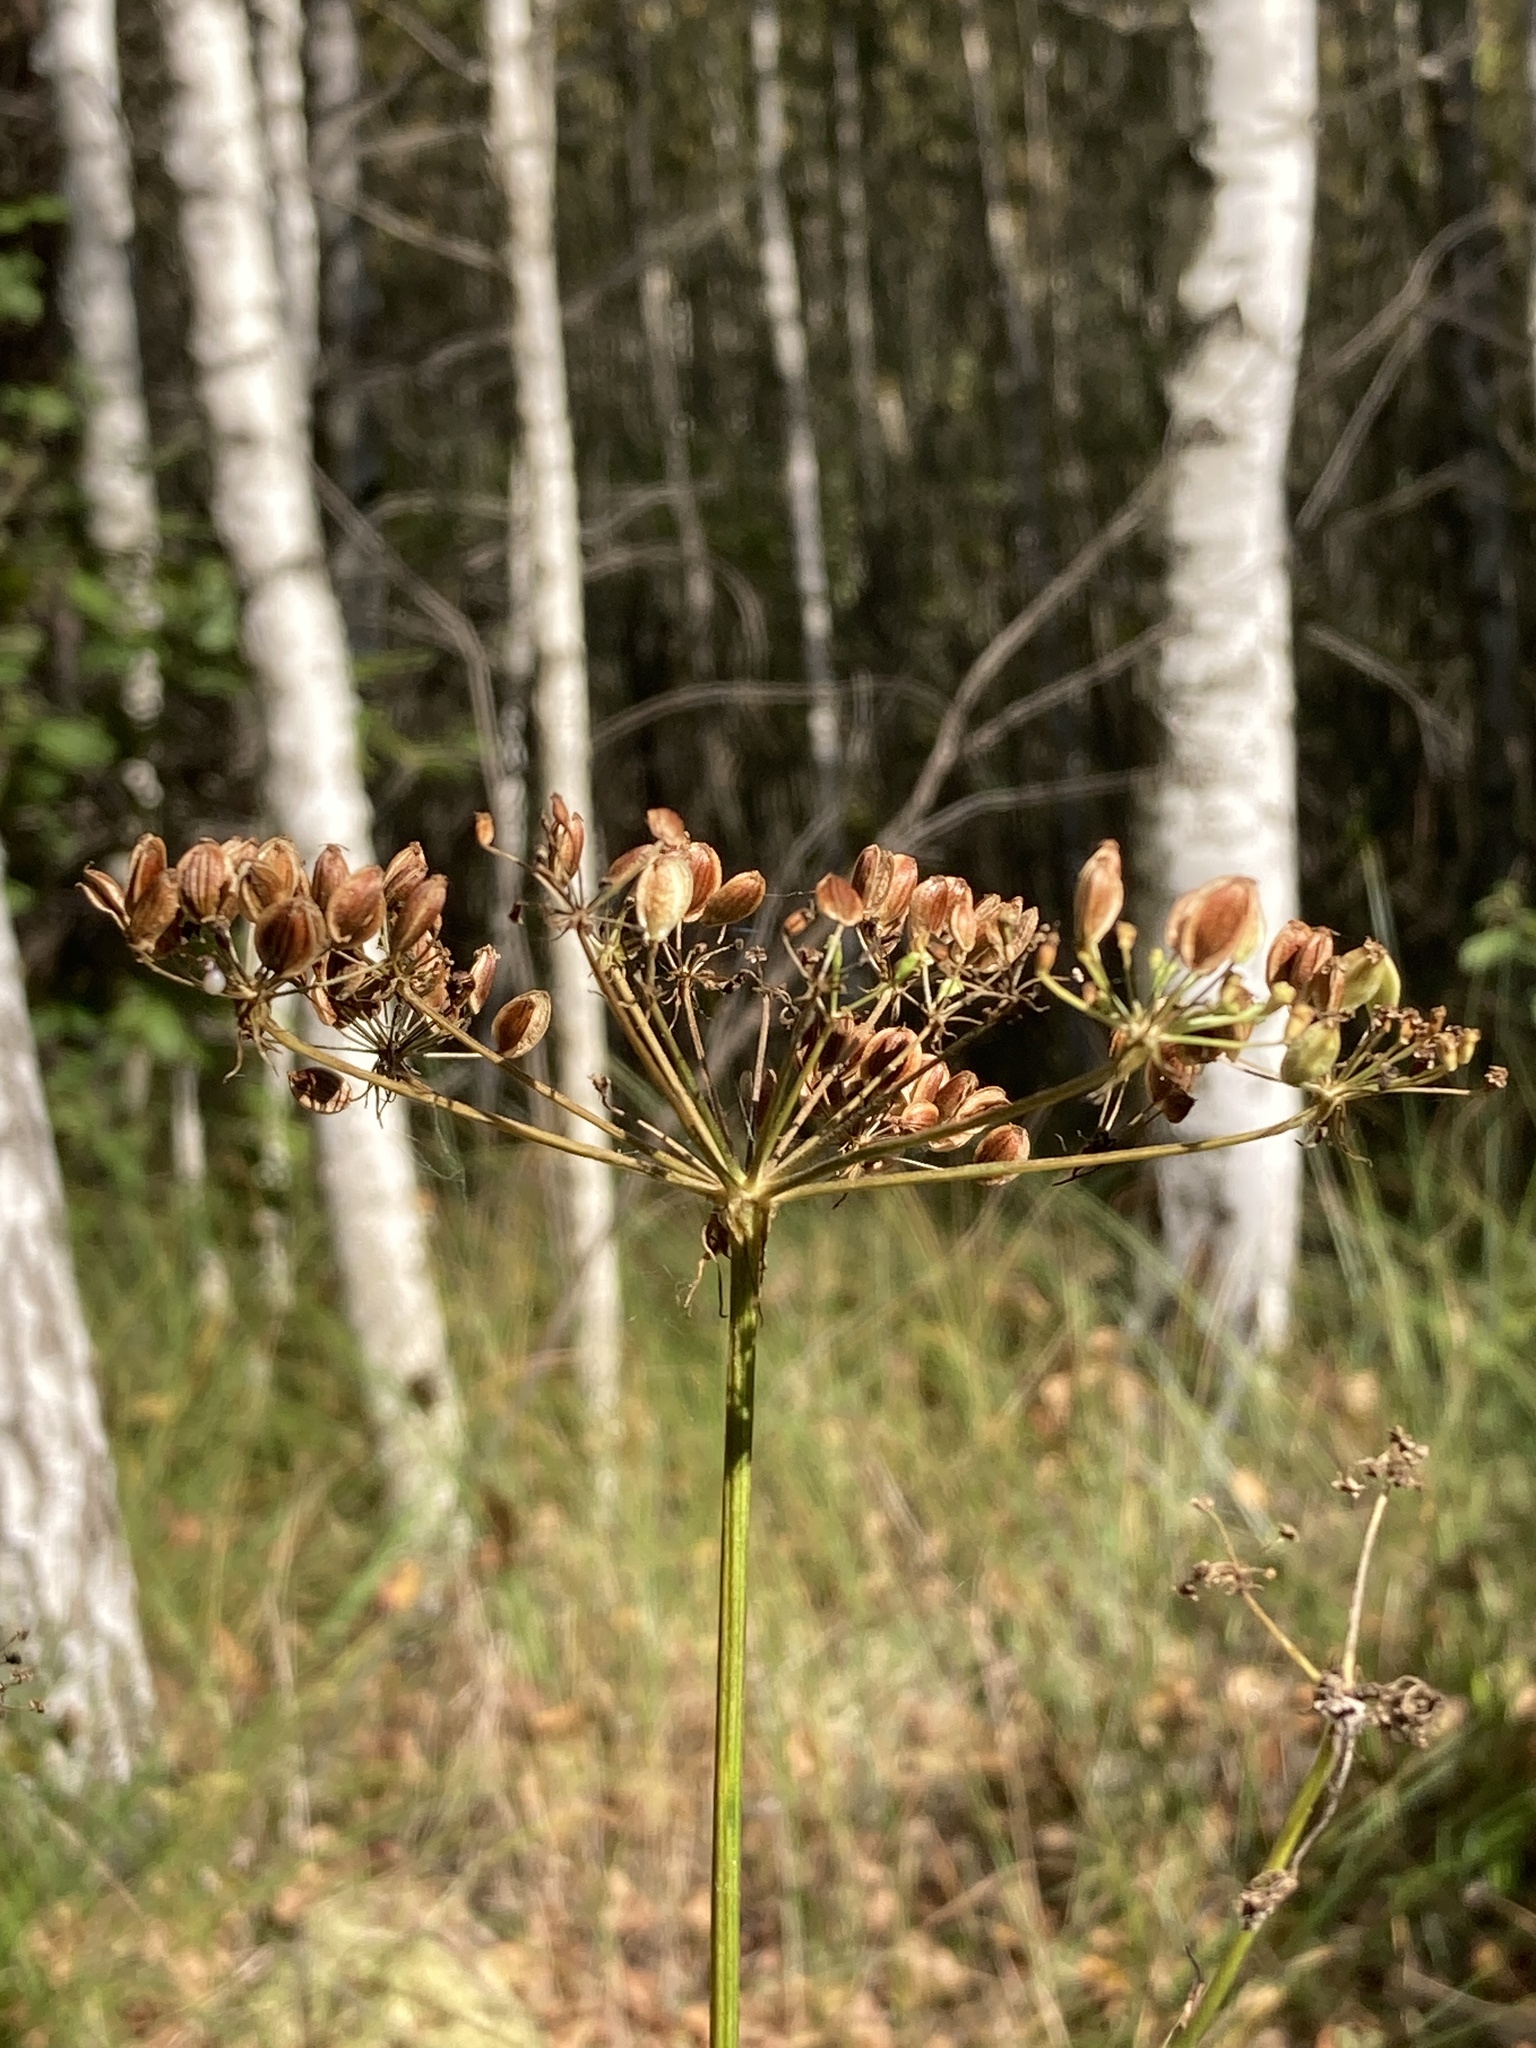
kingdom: Plantae
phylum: Tracheophyta
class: Magnoliopsida
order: Apiales
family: Apiaceae
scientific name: Apiaceae
